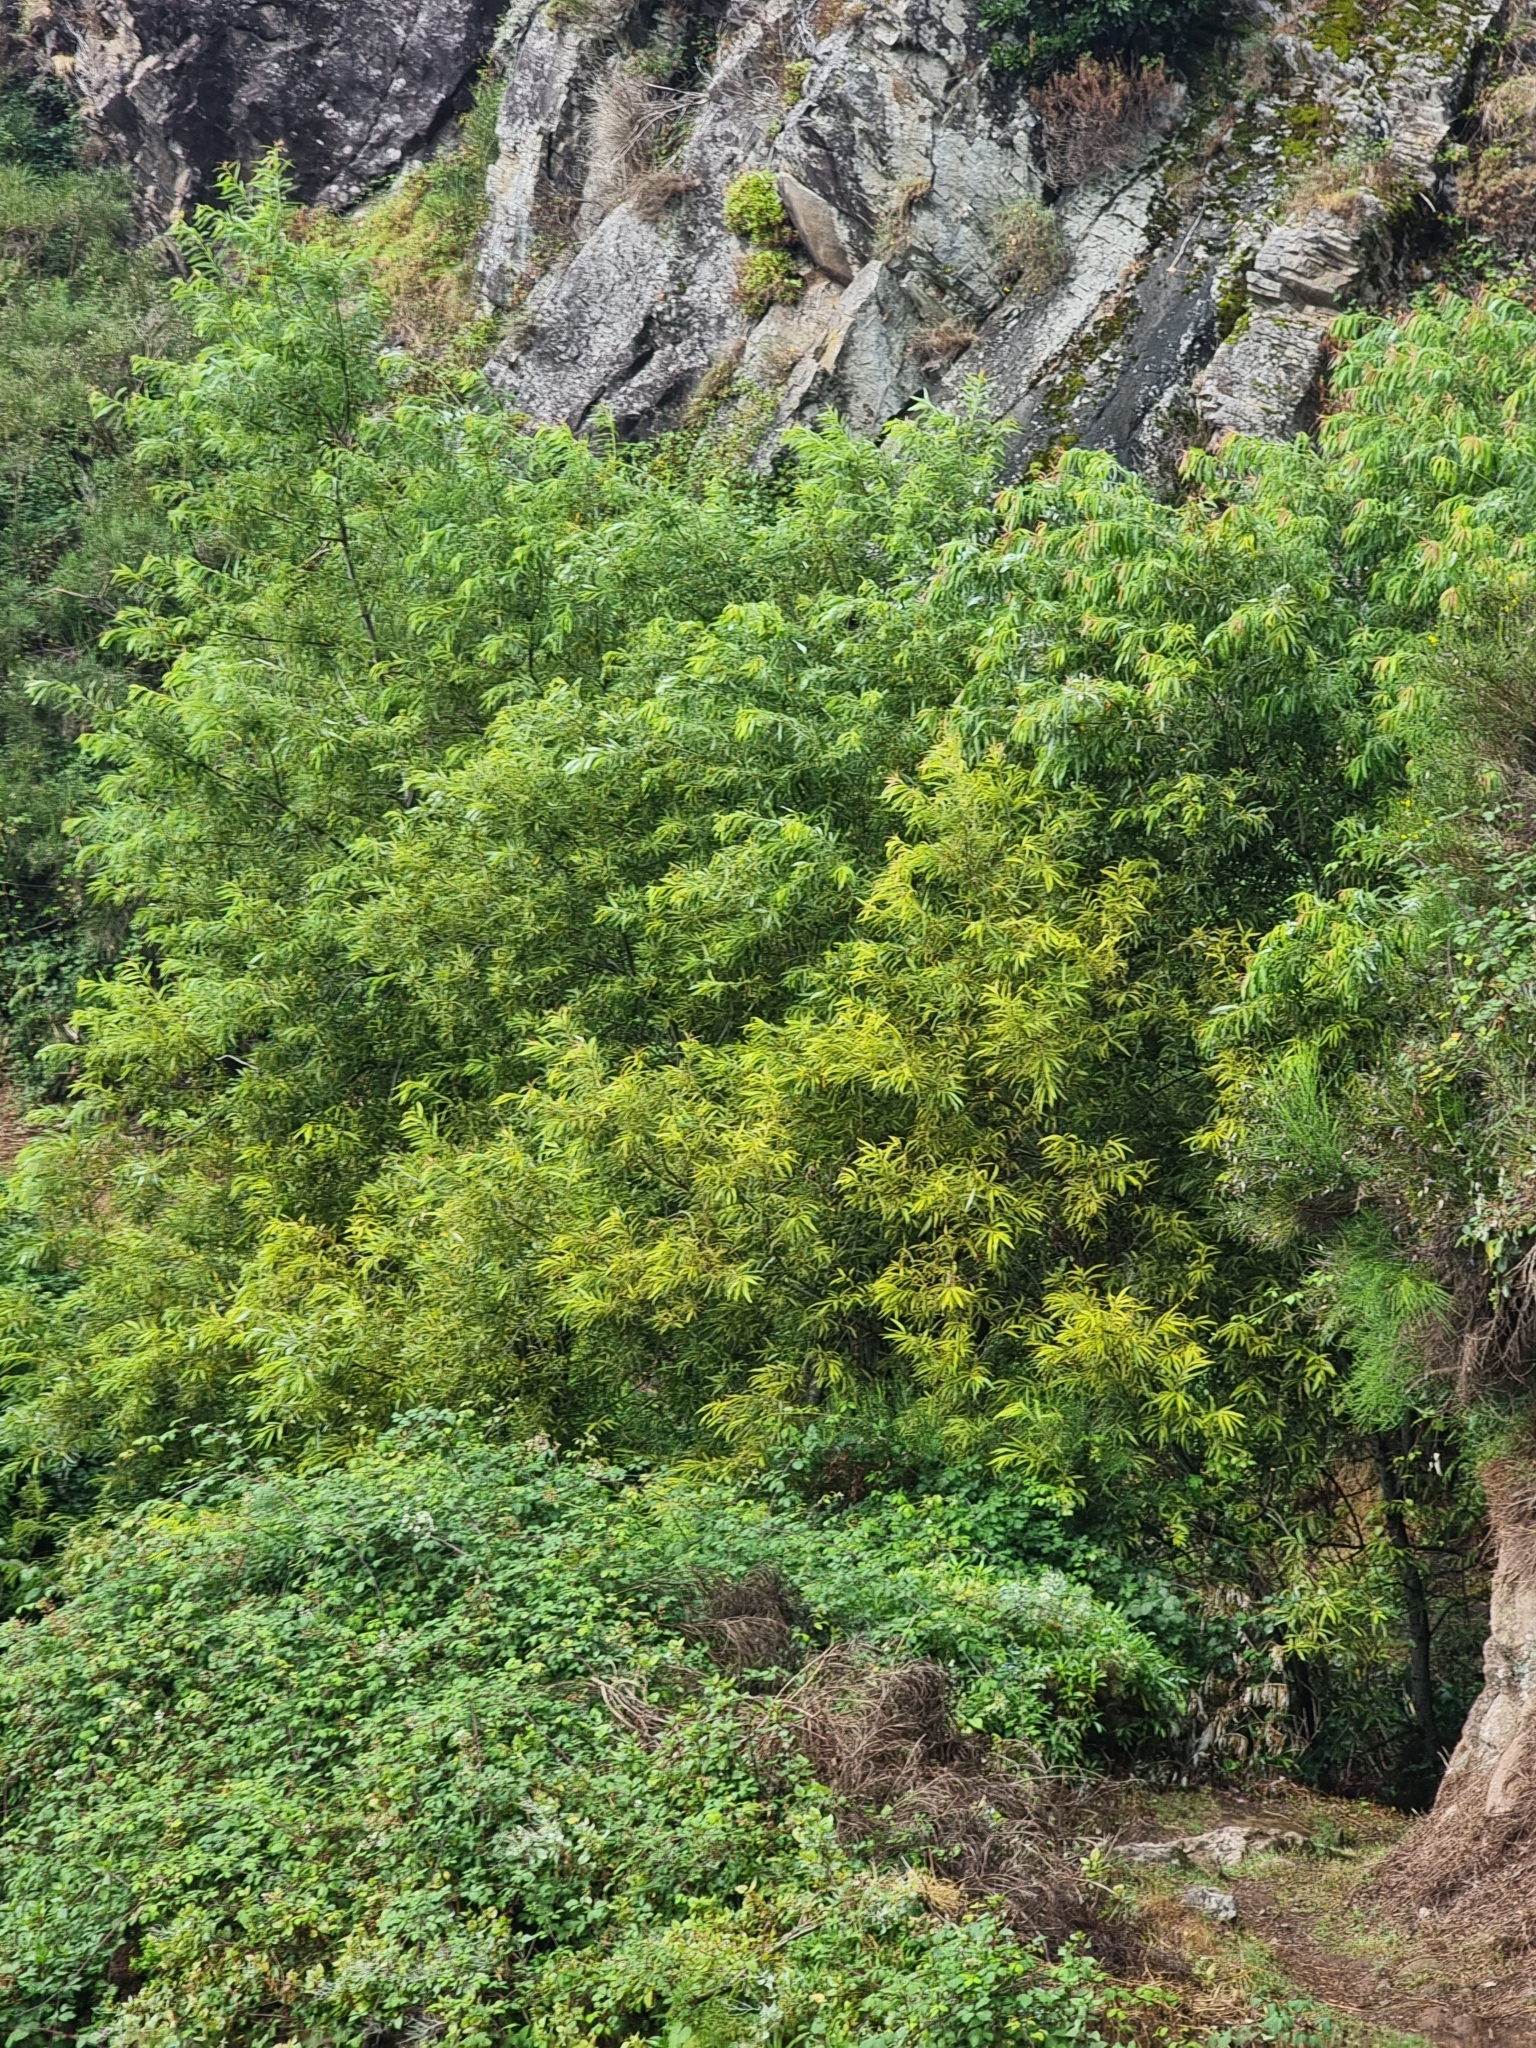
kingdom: Plantae
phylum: Tracheophyta
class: Magnoliopsida
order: Malpighiales
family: Salicaceae
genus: Salix
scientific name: Salix canariensis
